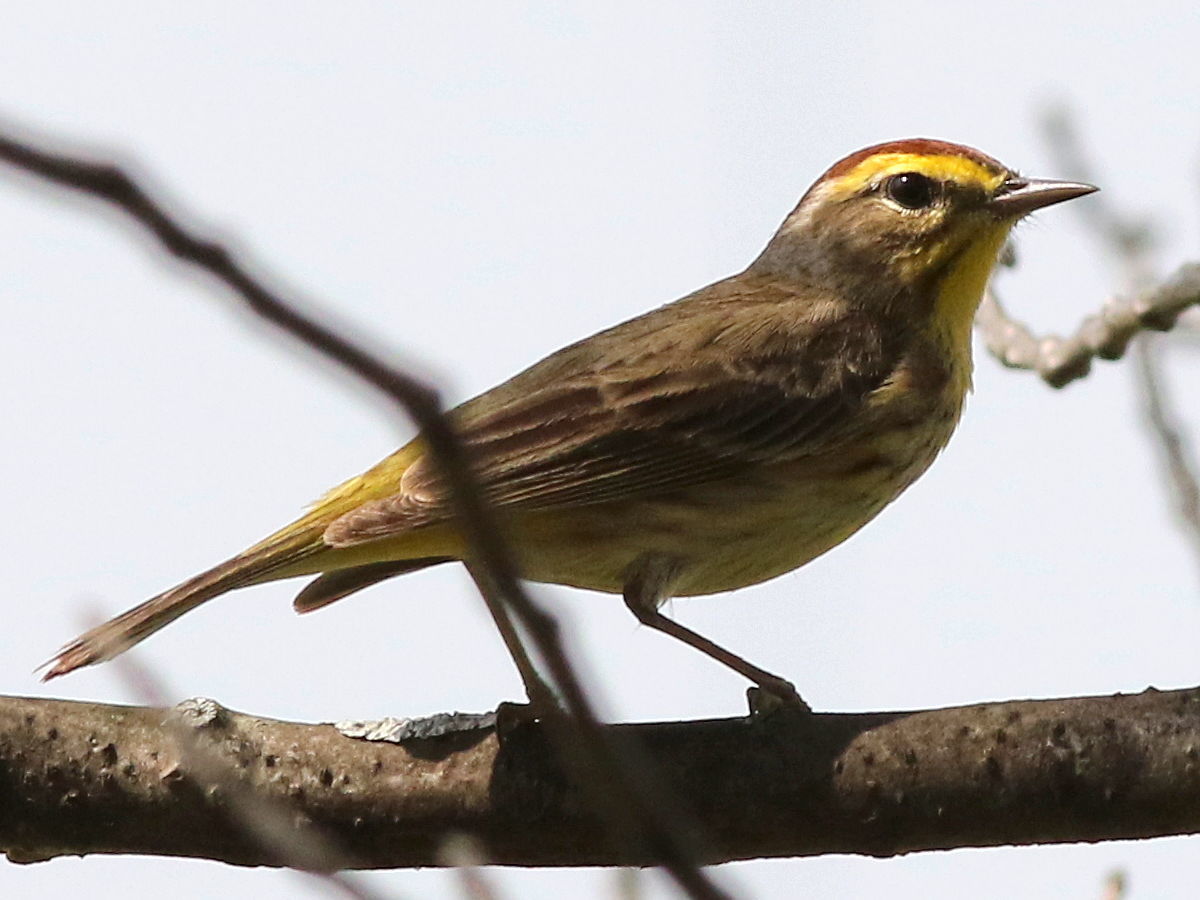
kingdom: Animalia
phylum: Chordata
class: Aves
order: Passeriformes
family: Parulidae
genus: Setophaga
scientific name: Setophaga palmarum
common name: Palm warbler
